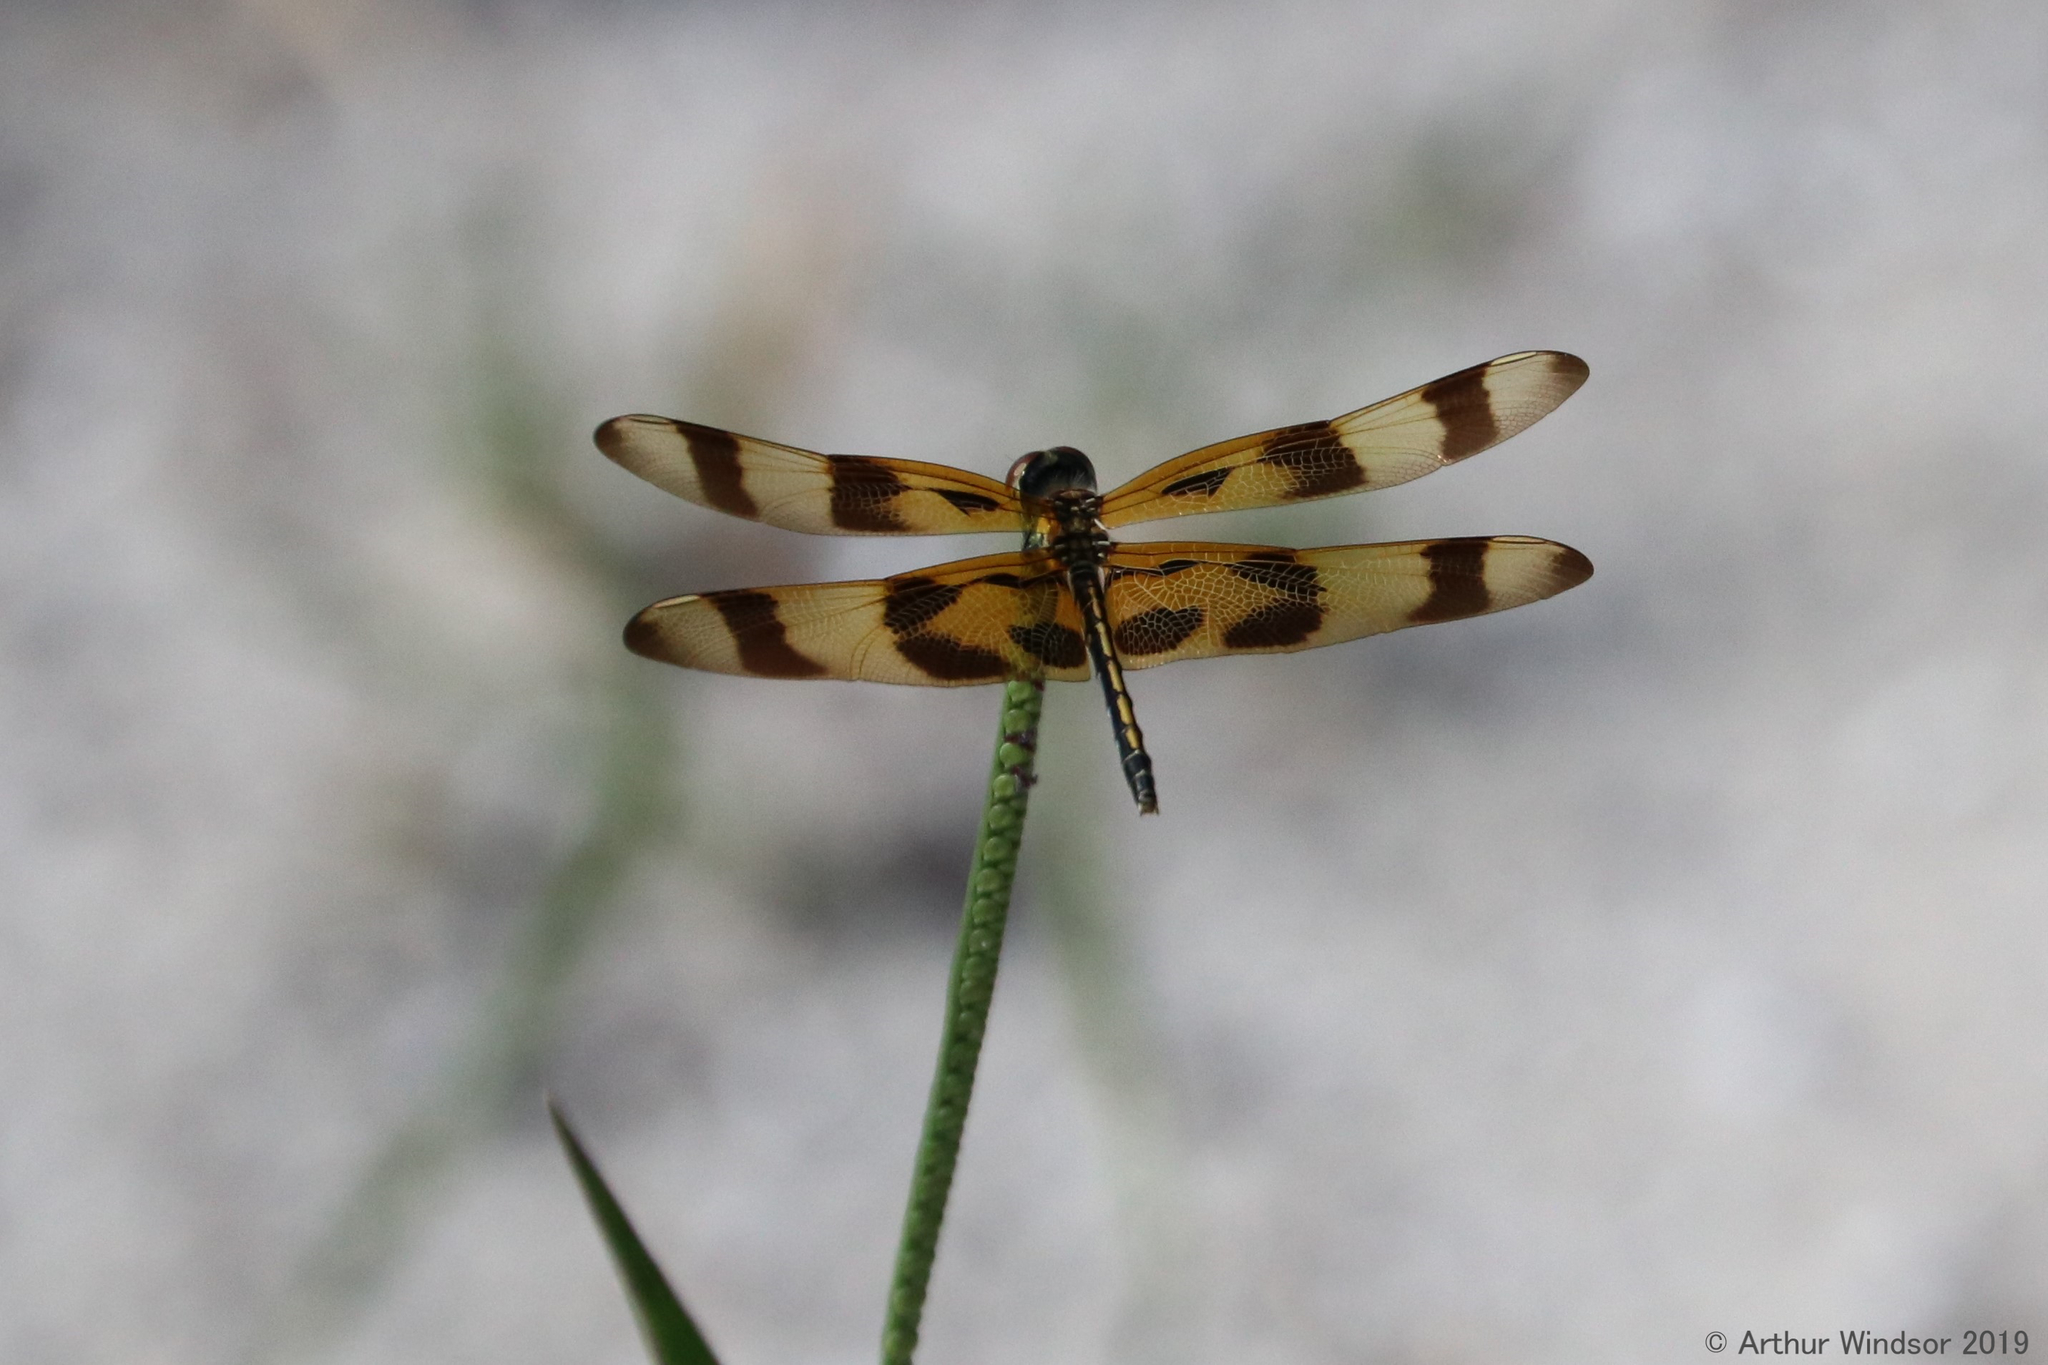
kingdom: Animalia
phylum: Arthropoda
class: Insecta
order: Odonata
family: Libellulidae
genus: Celithemis
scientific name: Celithemis eponina
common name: Halloween pennant
